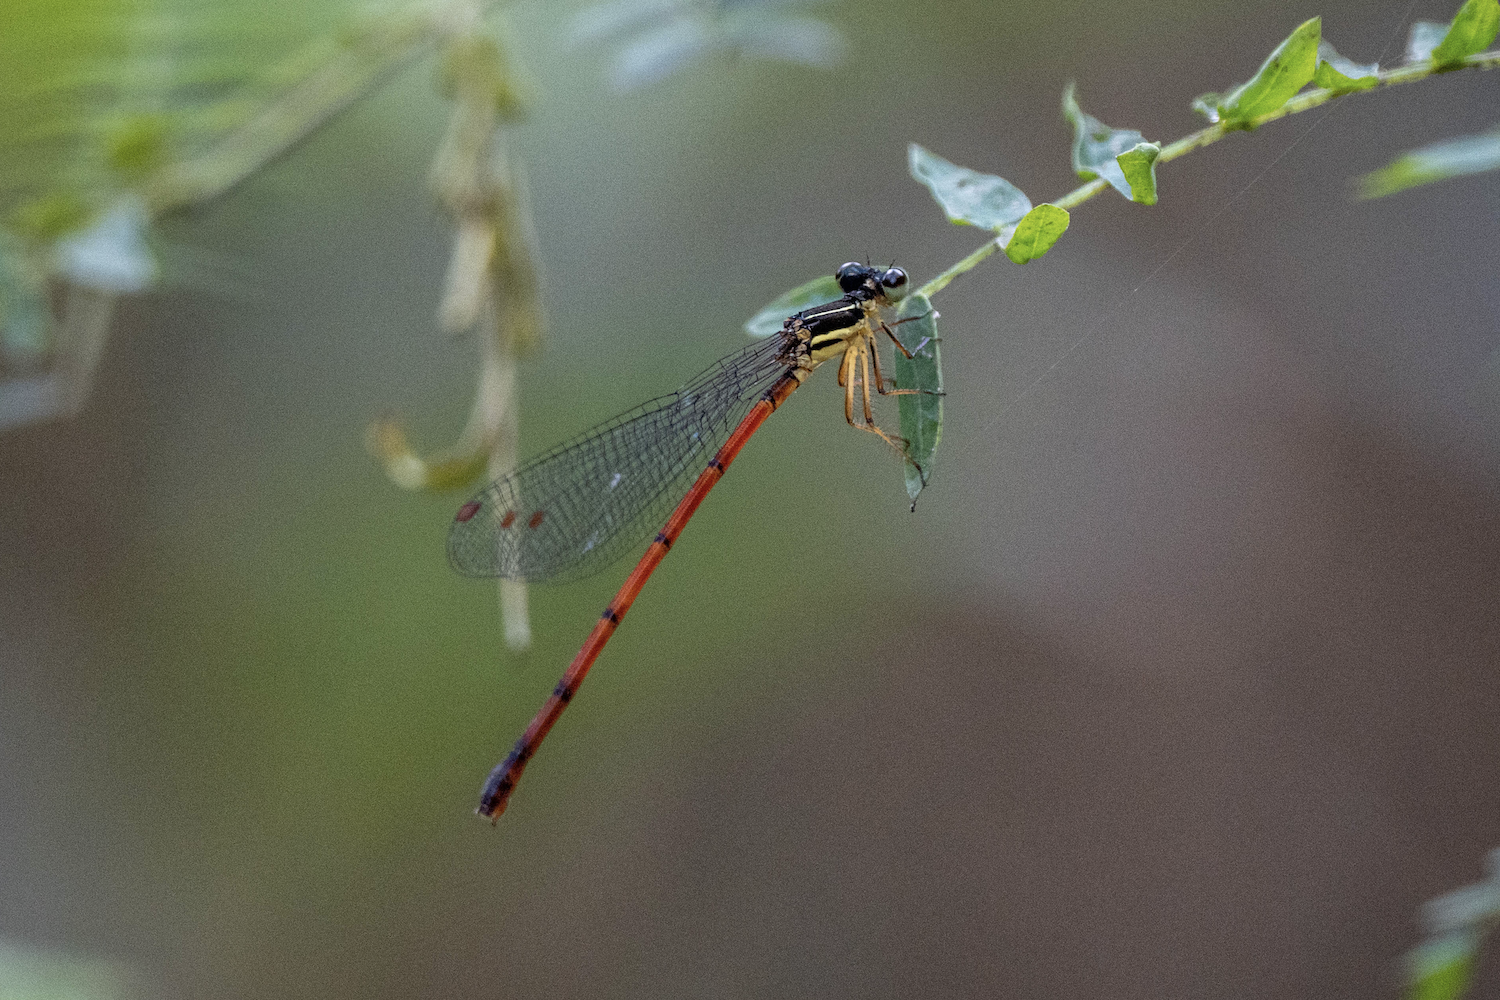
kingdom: Animalia
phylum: Arthropoda
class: Insecta
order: Odonata
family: Platycnemididae
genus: Calicnemia
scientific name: Calicnemia sinensis
